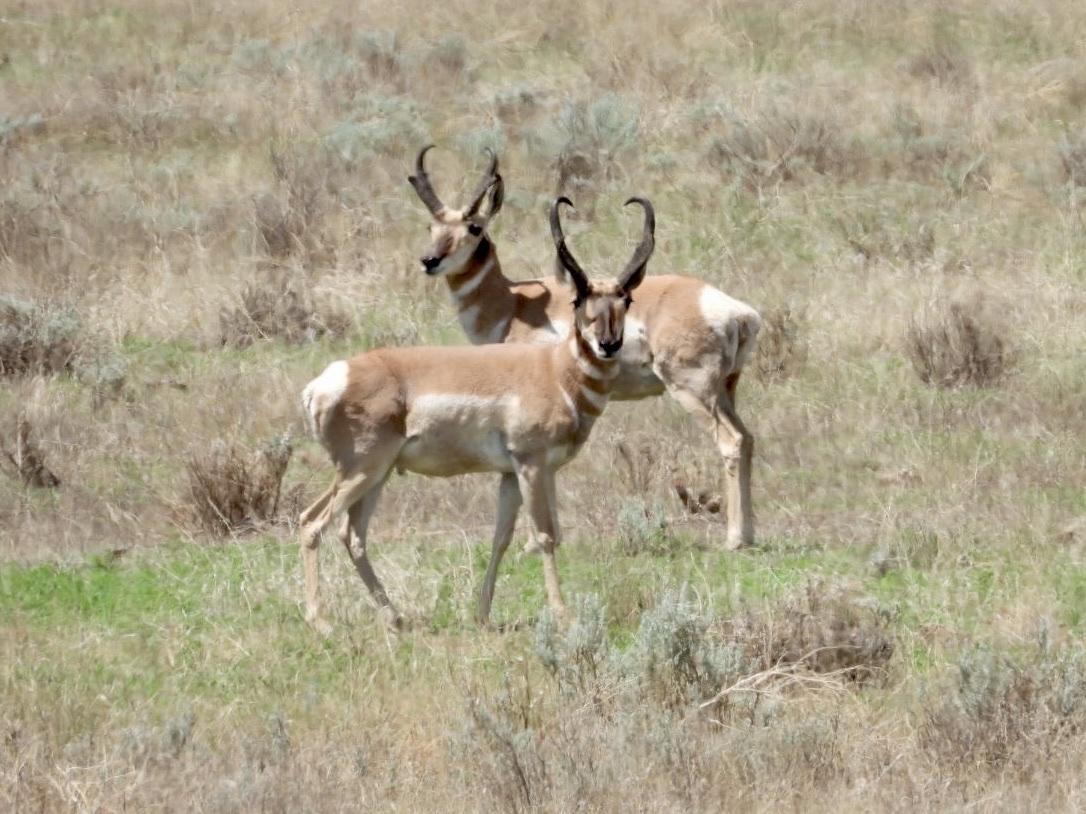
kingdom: Animalia
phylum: Chordata
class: Mammalia
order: Artiodactyla
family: Antilocapridae
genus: Antilocapra
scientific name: Antilocapra americana
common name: Pronghorn
